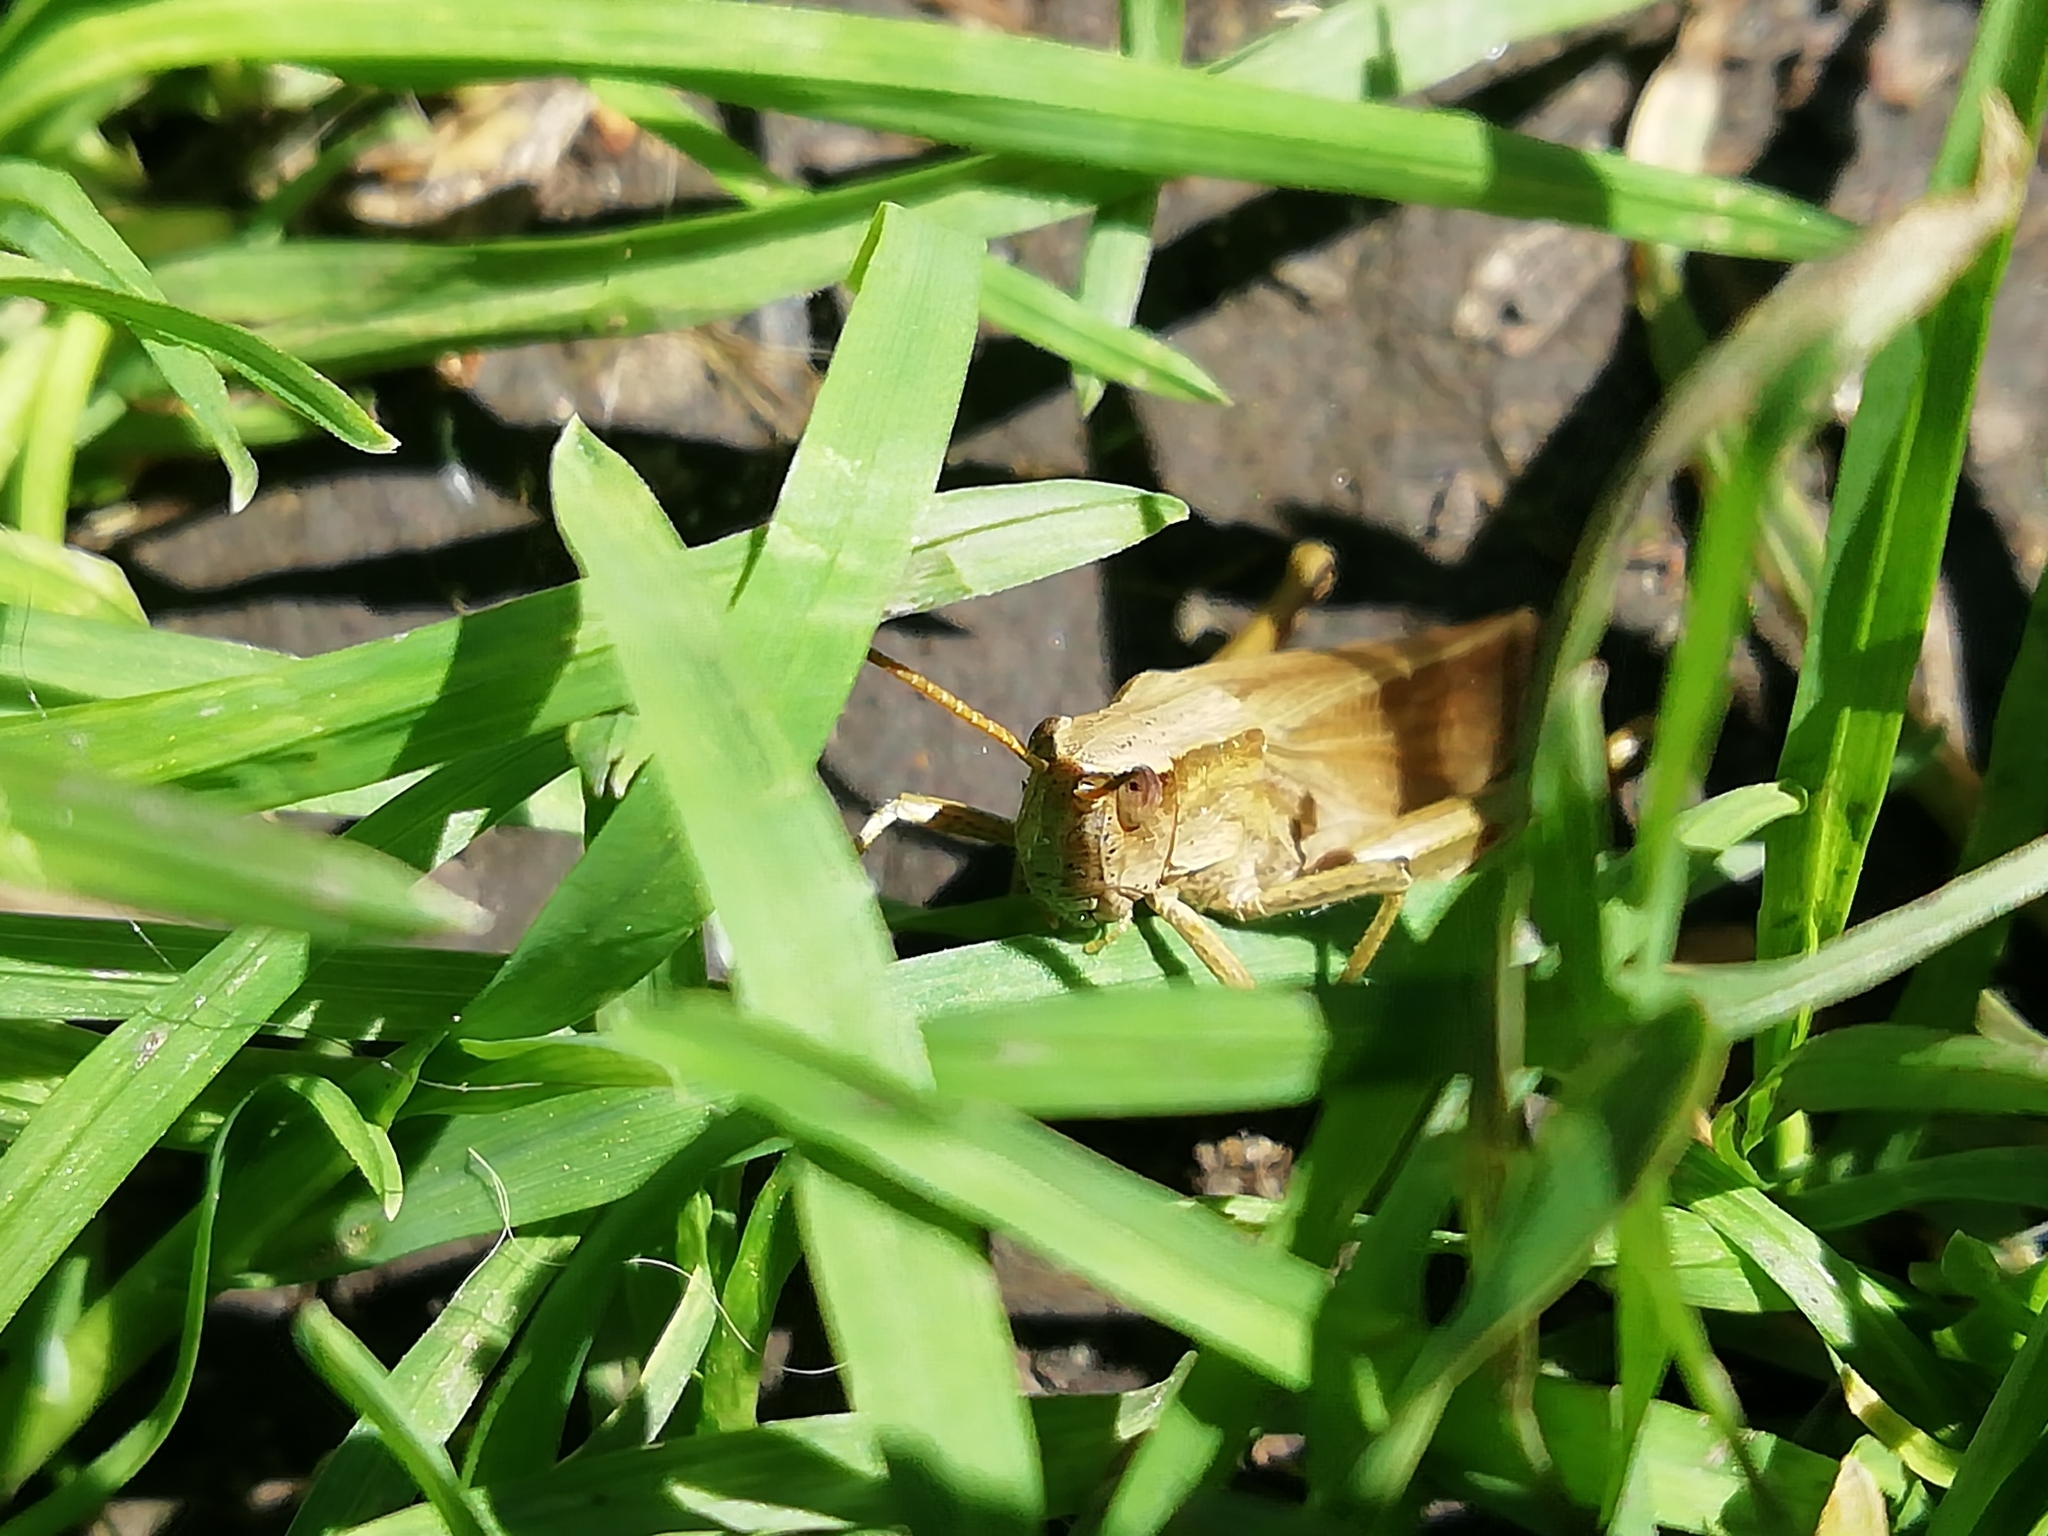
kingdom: Animalia
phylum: Arthropoda
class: Insecta
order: Orthoptera
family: Acrididae
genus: Chrysochraon
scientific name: Chrysochraon dispar
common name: Large gold grasshopper
